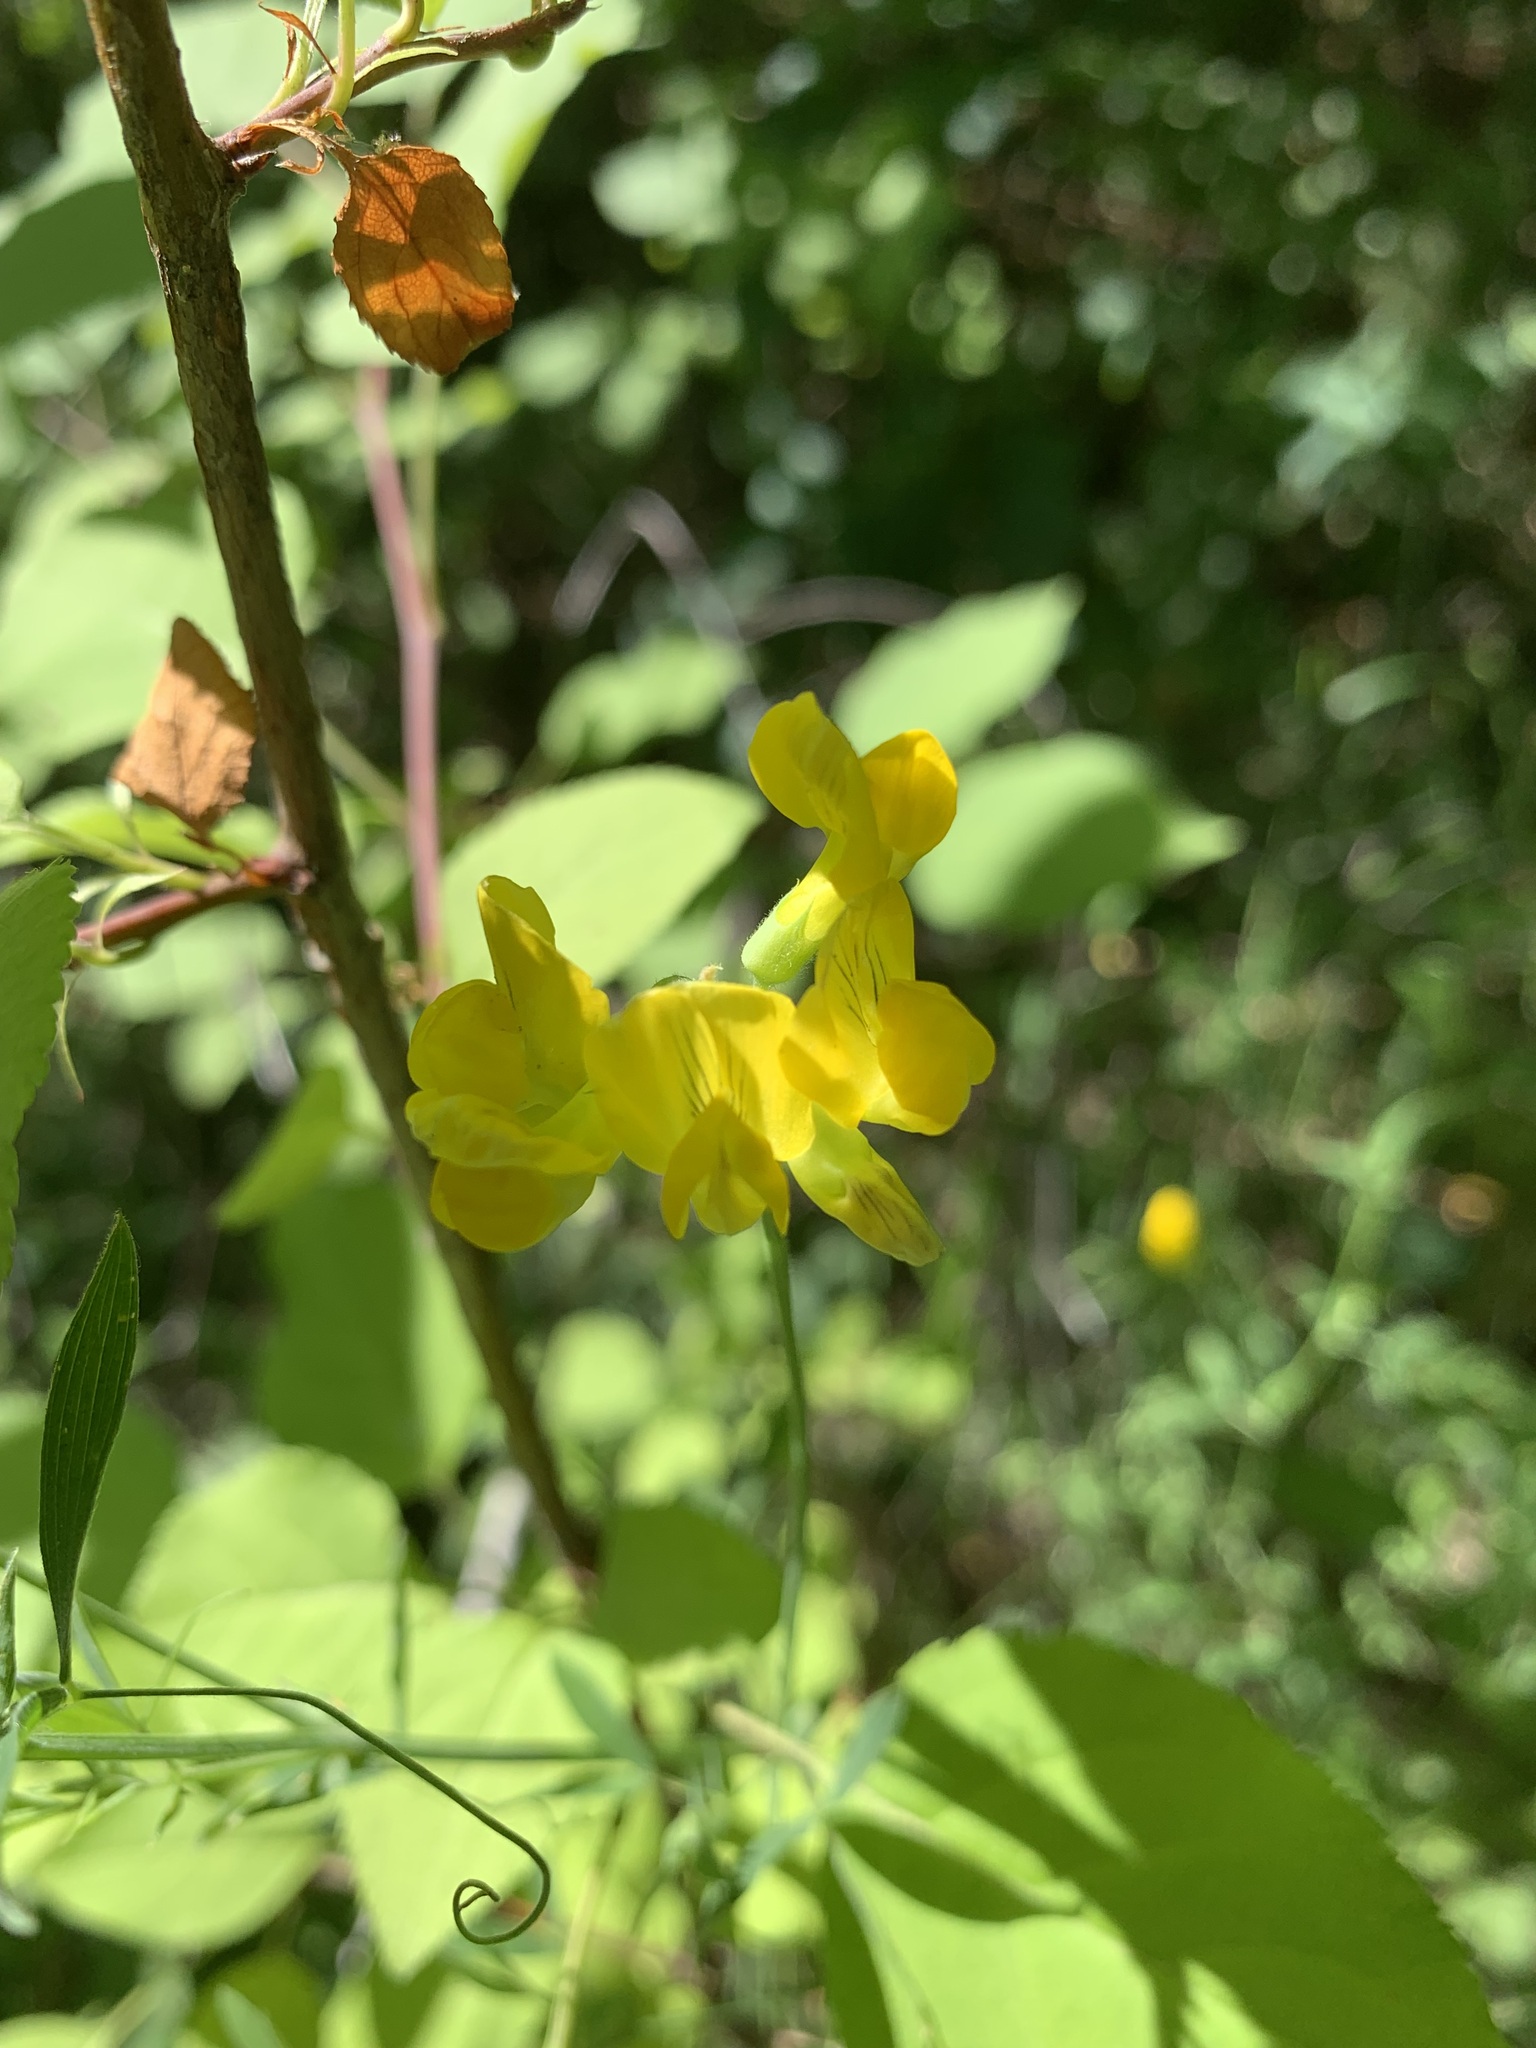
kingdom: Plantae
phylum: Tracheophyta
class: Magnoliopsida
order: Fabales
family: Fabaceae
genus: Lathyrus
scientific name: Lathyrus pratensis
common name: Meadow vetchling
